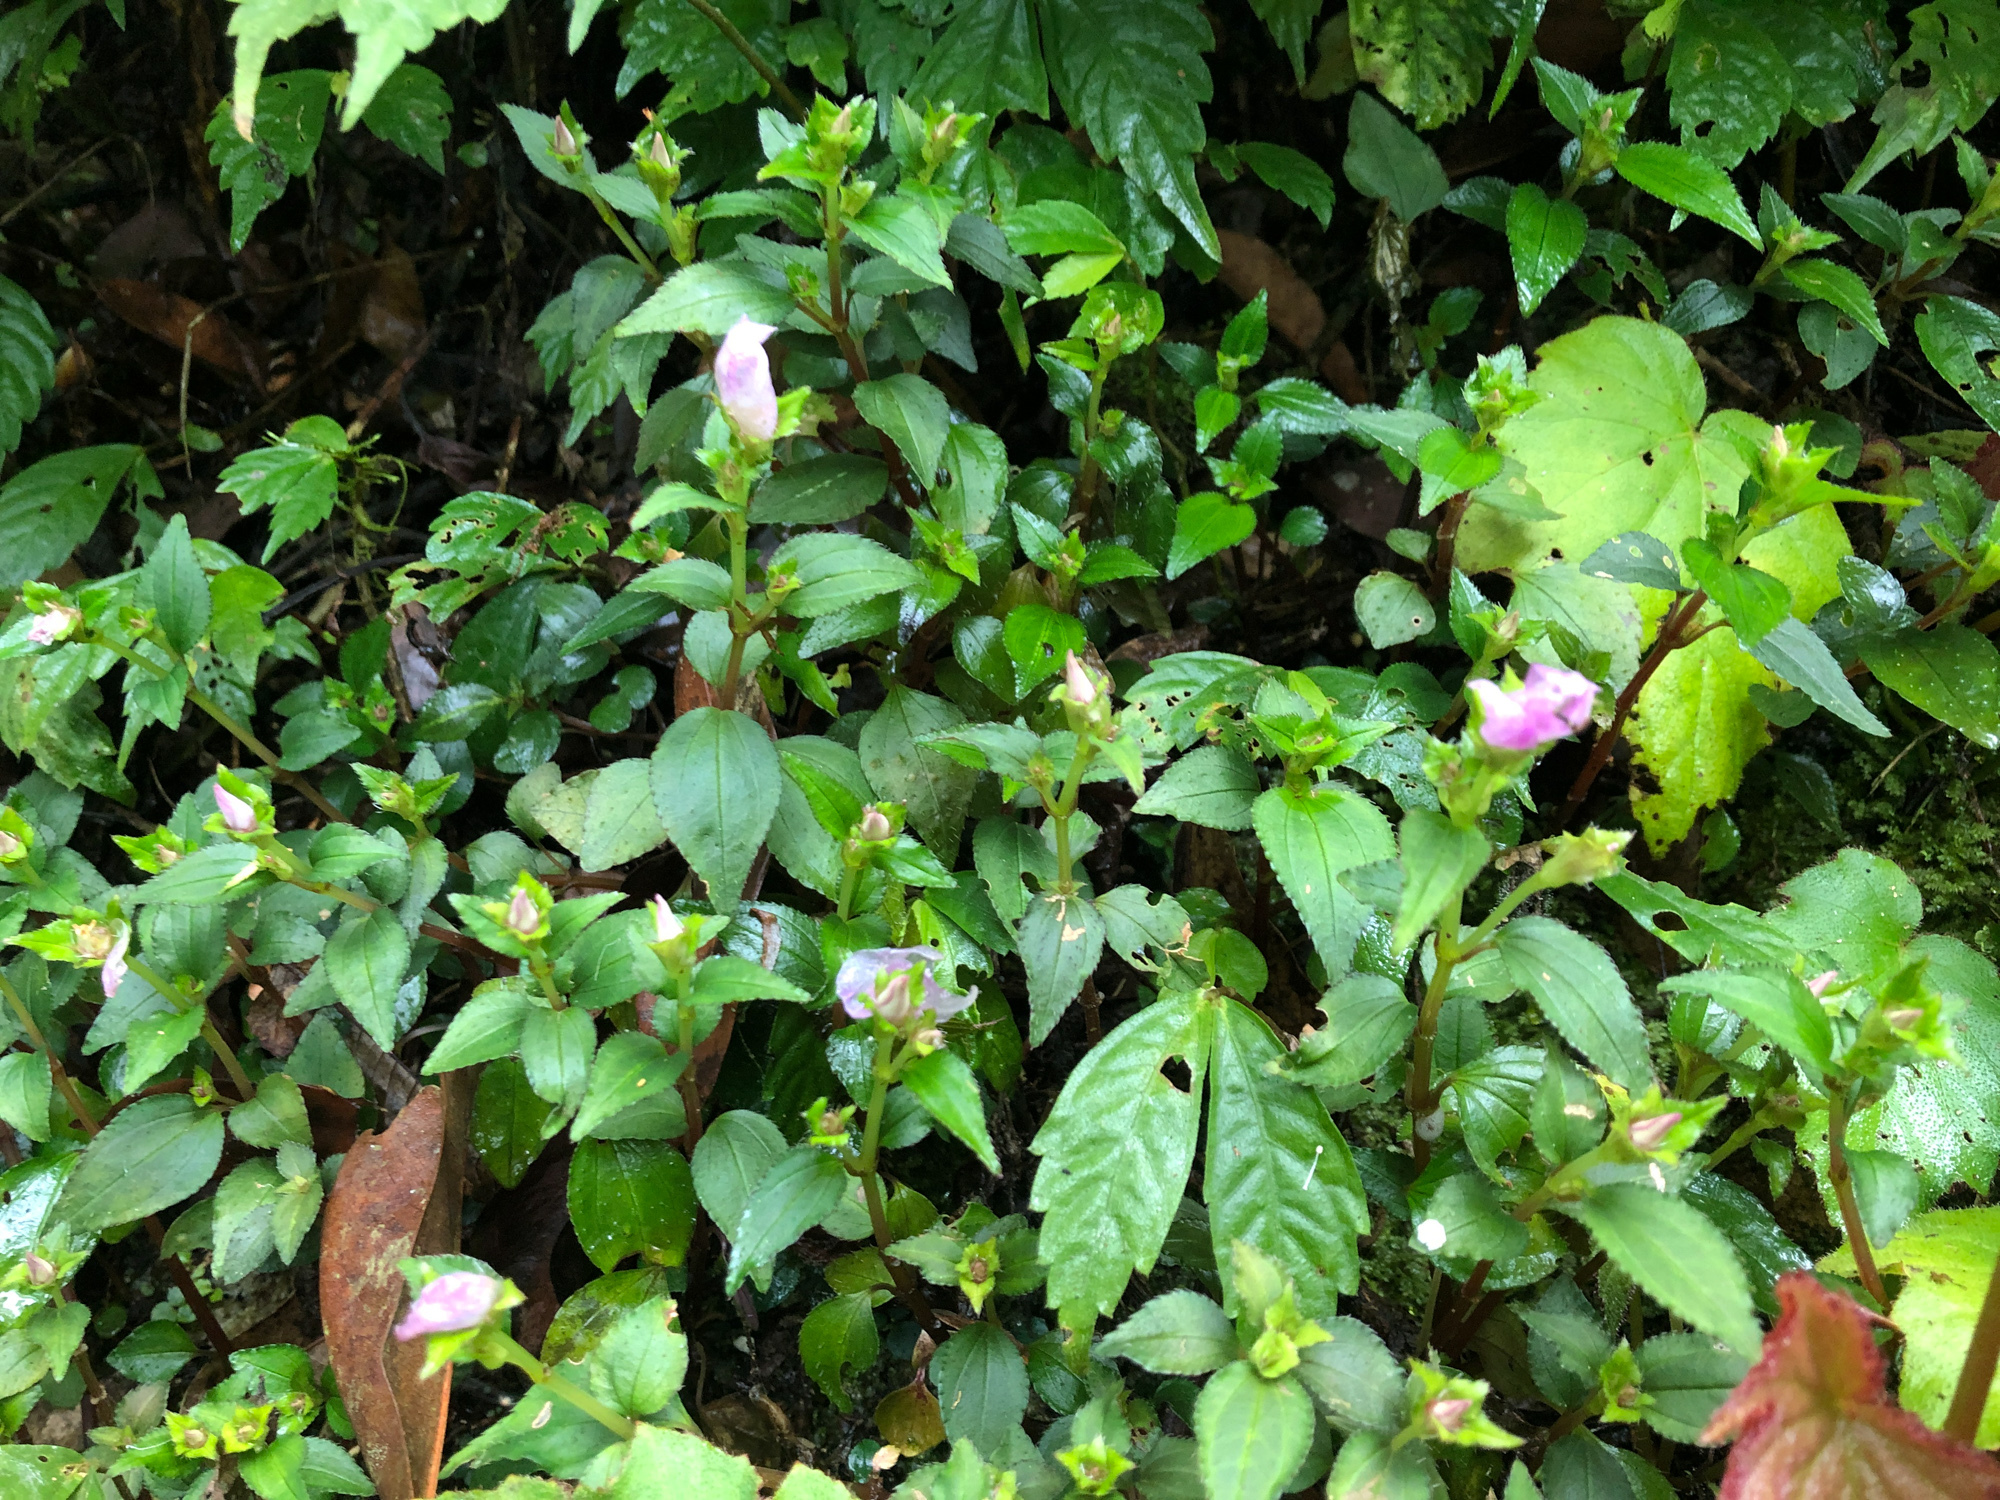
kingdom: Plantae
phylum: Tracheophyta
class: Magnoliopsida
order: Myrtales
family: Melastomataceae
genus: Sarcopyramis
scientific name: Sarcopyramis bodinieri
